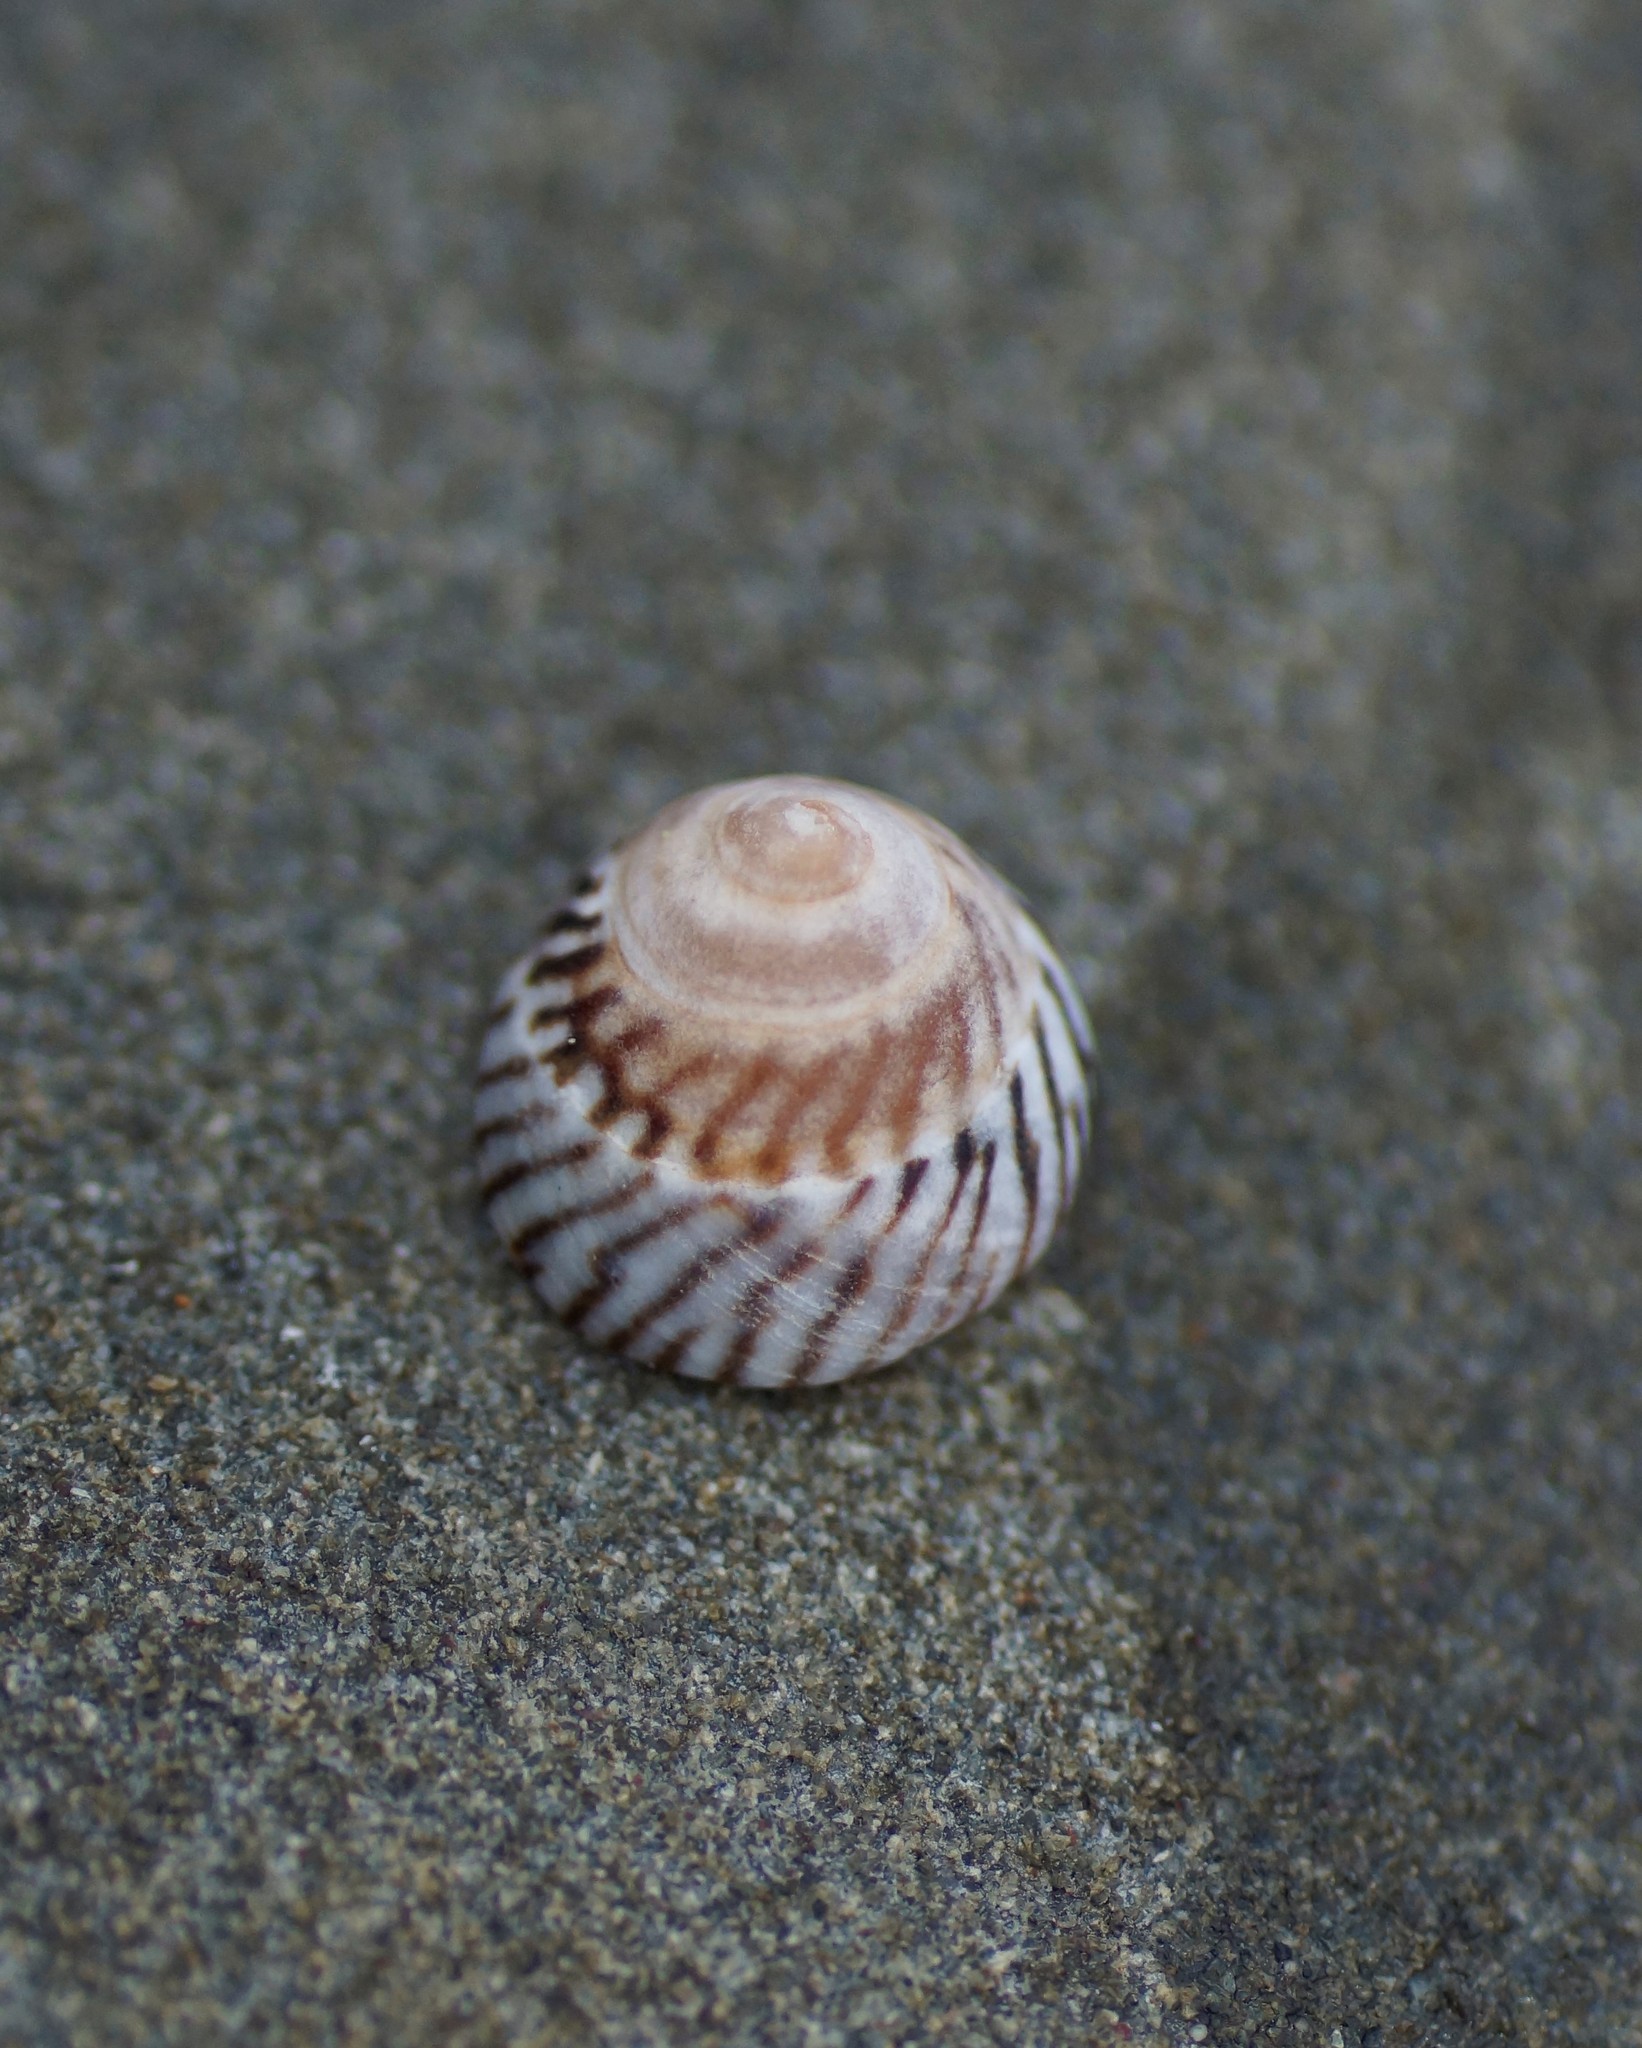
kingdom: Animalia
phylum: Mollusca
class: Gastropoda
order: Littorinimorpha
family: Littorinidae
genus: Bembicium
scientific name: Bembicium nanum
